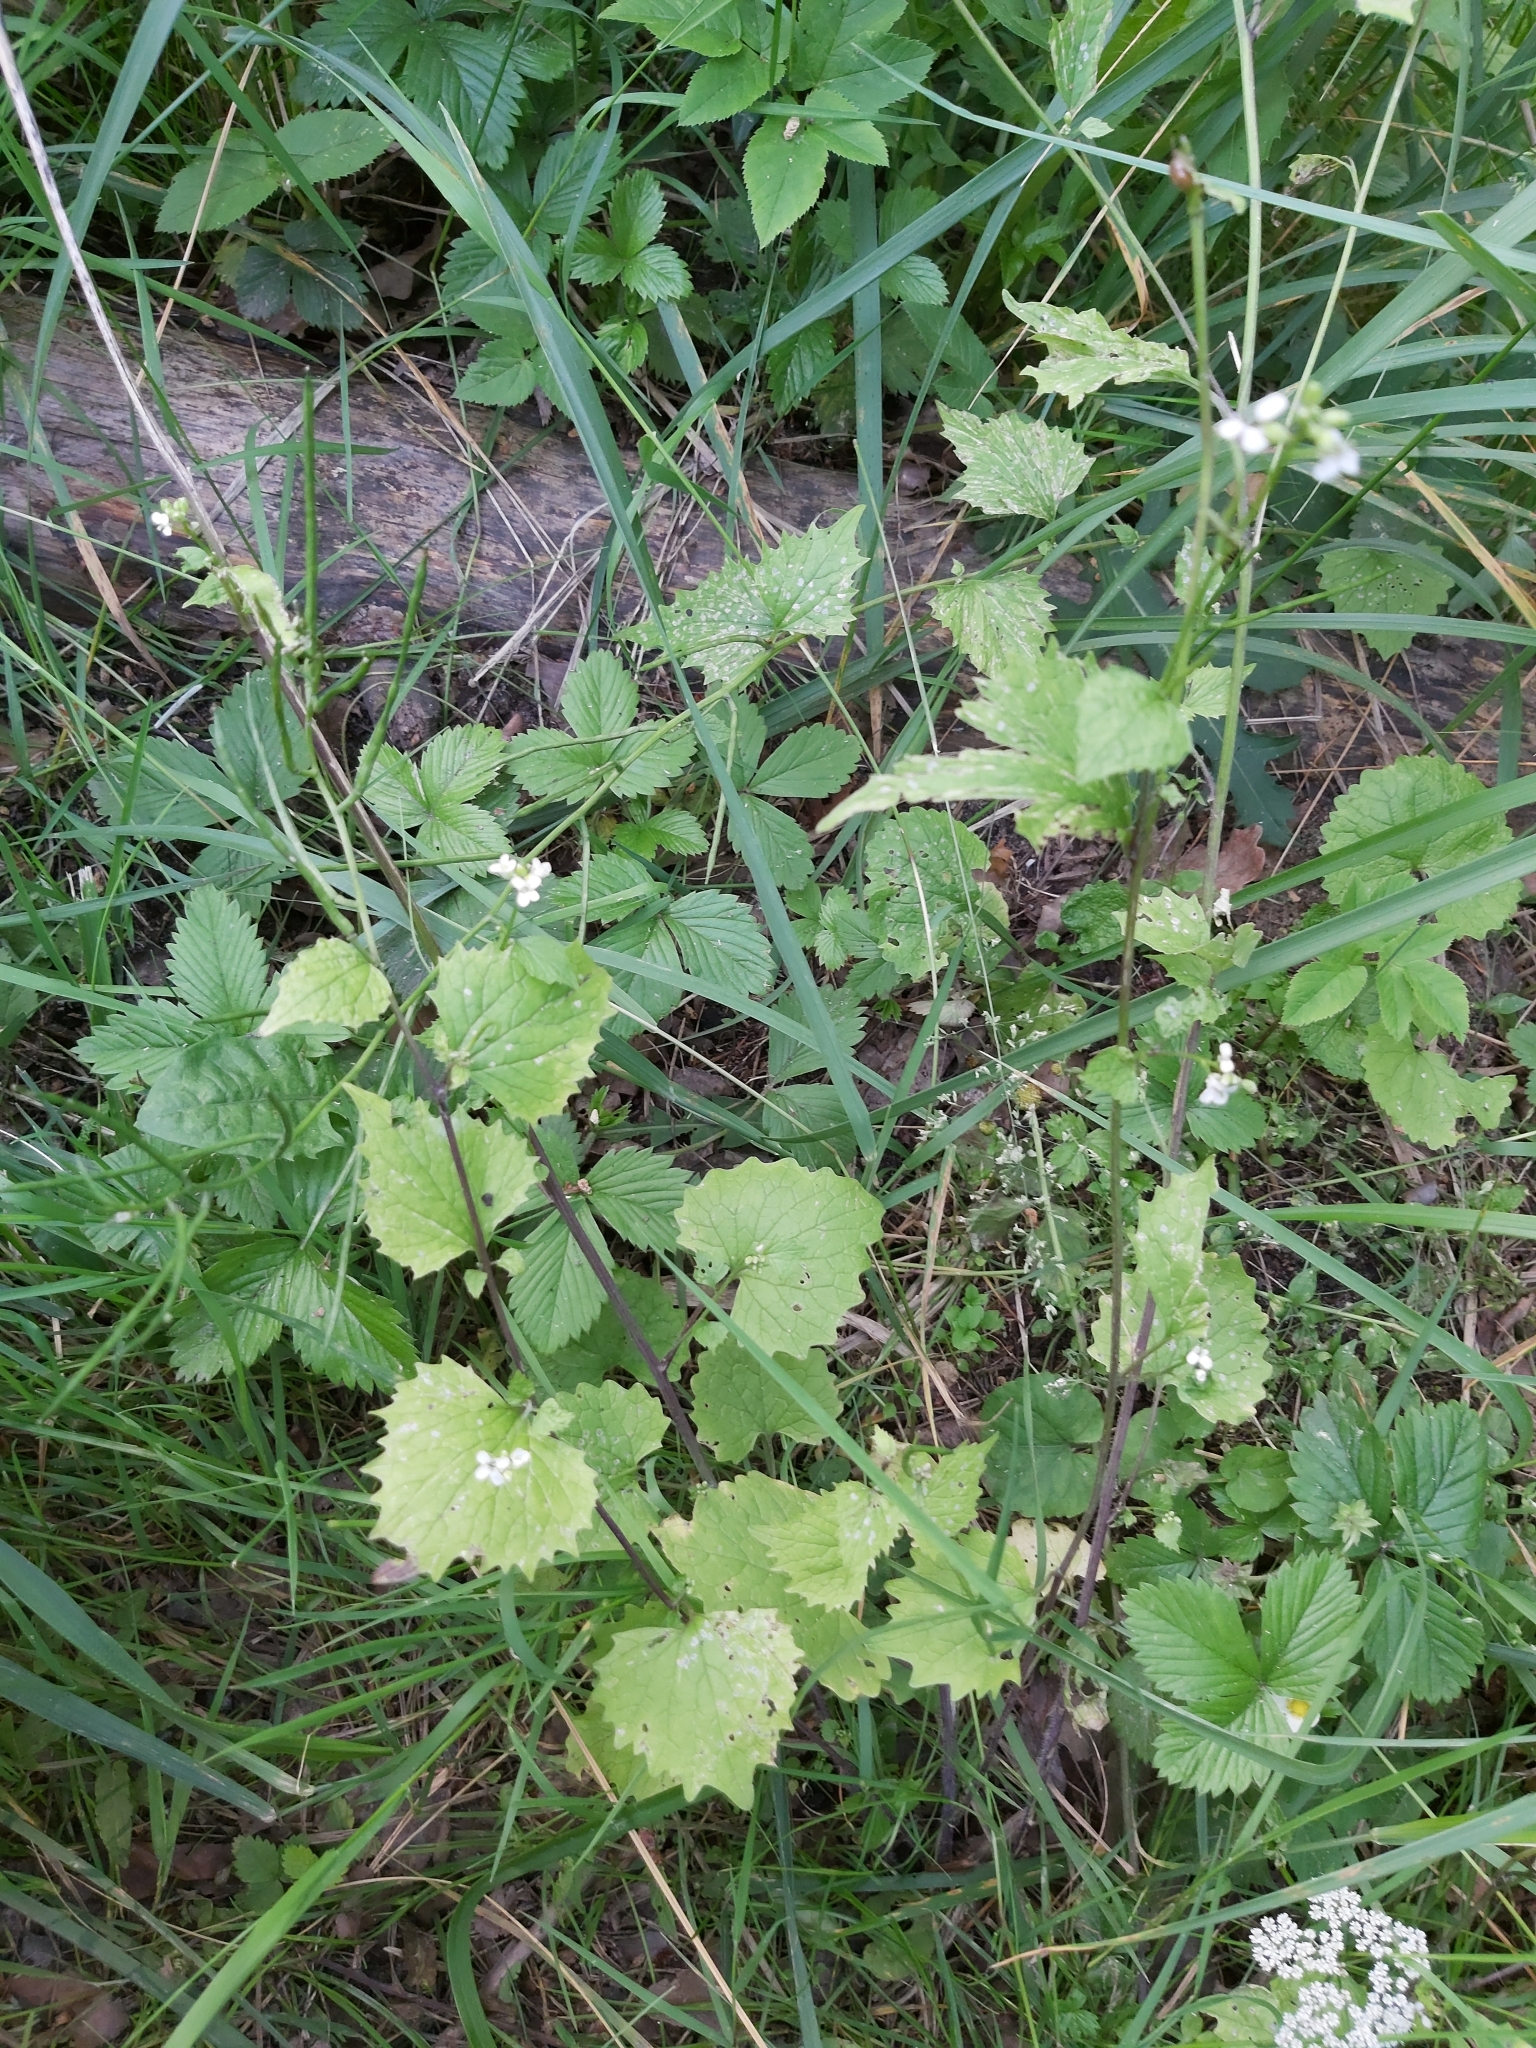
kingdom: Plantae
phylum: Tracheophyta
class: Magnoliopsida
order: Brassicales
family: Brassicaceae
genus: Alliaria
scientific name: Alliaria petiolata
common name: Garlic mustard
